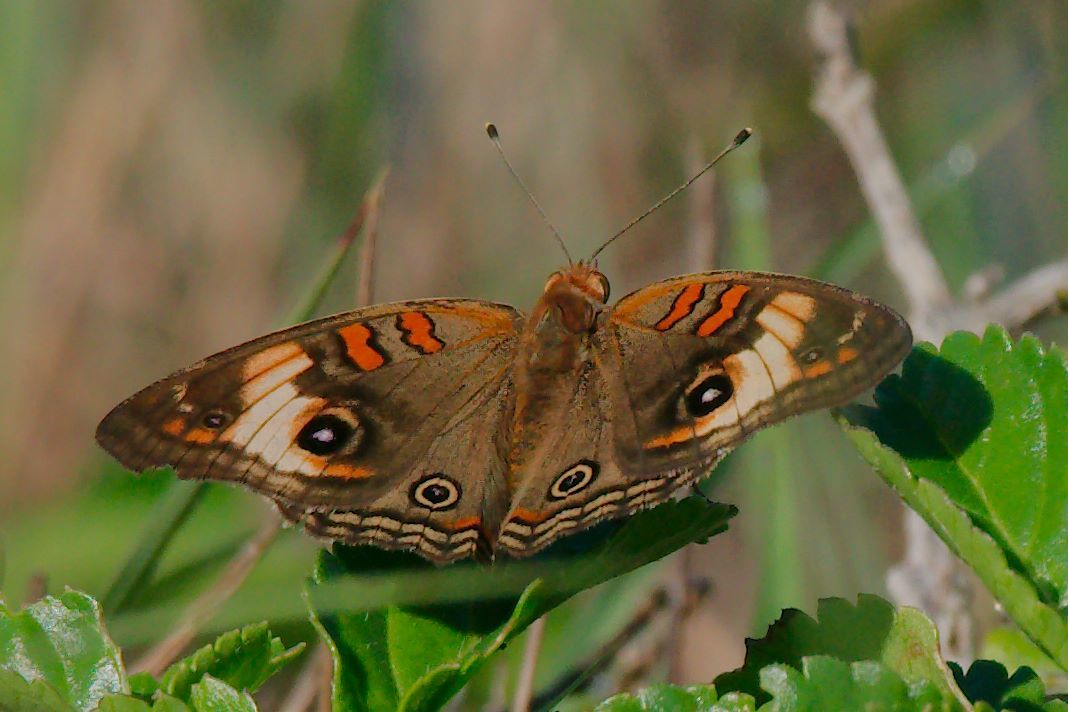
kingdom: Animalia
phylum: Arthropoda
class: Insecta
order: Lepidoptera
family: Nymphalidae
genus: Junonia
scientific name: Junonia lavinia
